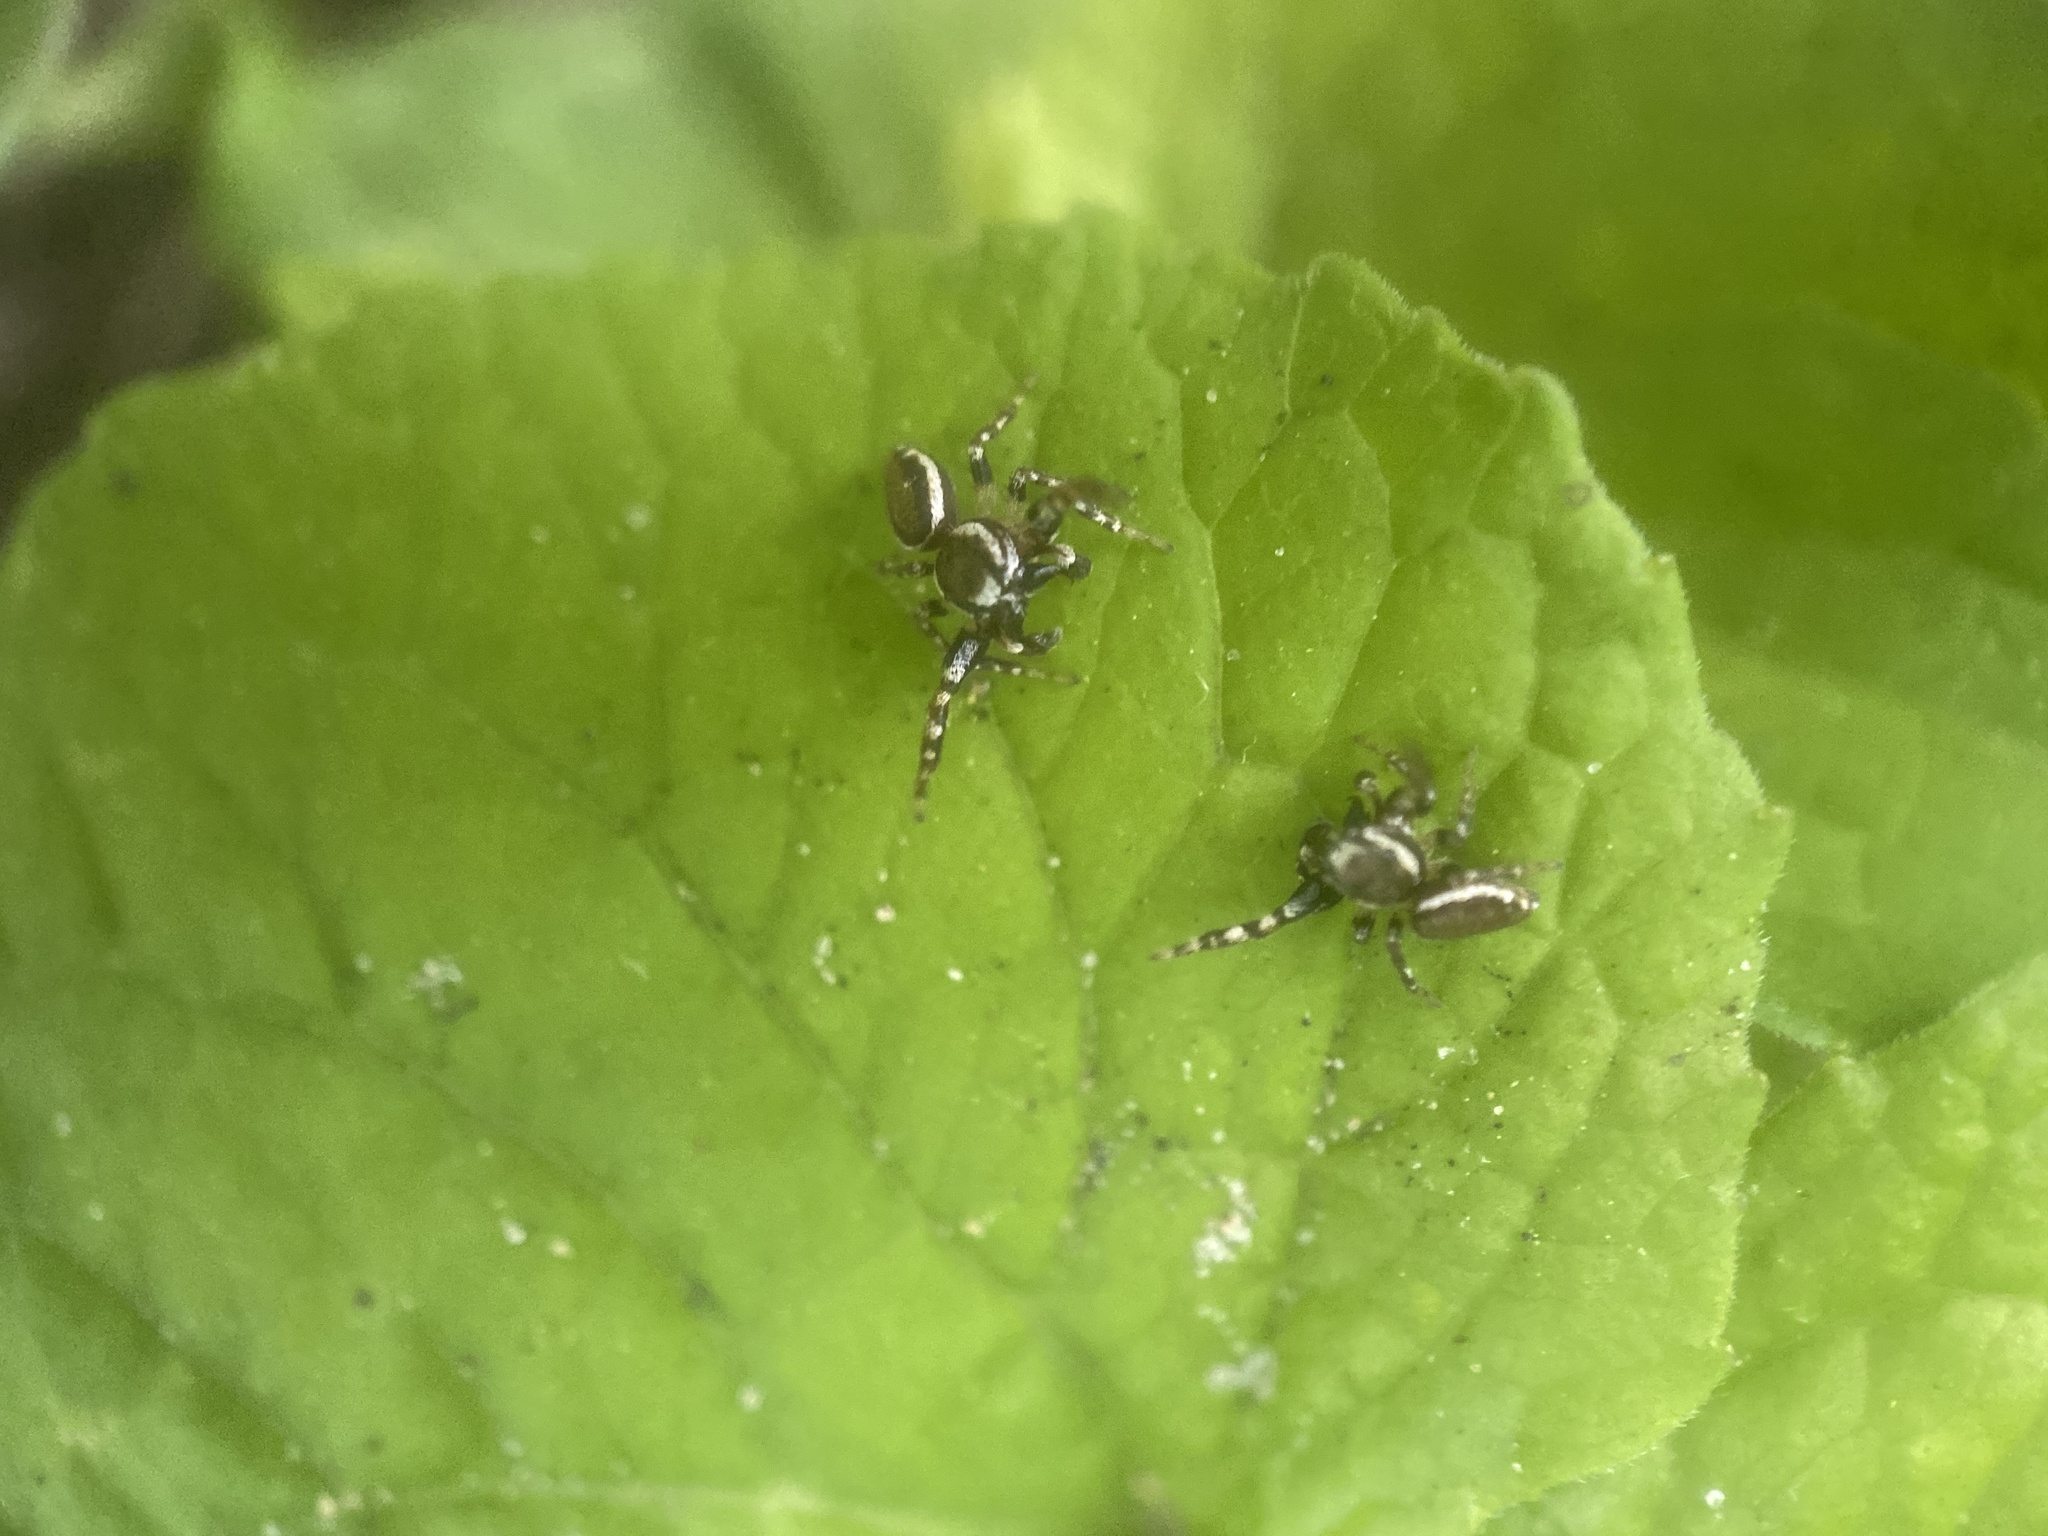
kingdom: Animalia
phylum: Arthropoda
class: Arachnida
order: Araneae
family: Salticidae
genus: Pelegrina
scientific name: Pelegrina proterva
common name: Common white-cheeked jumping spider
